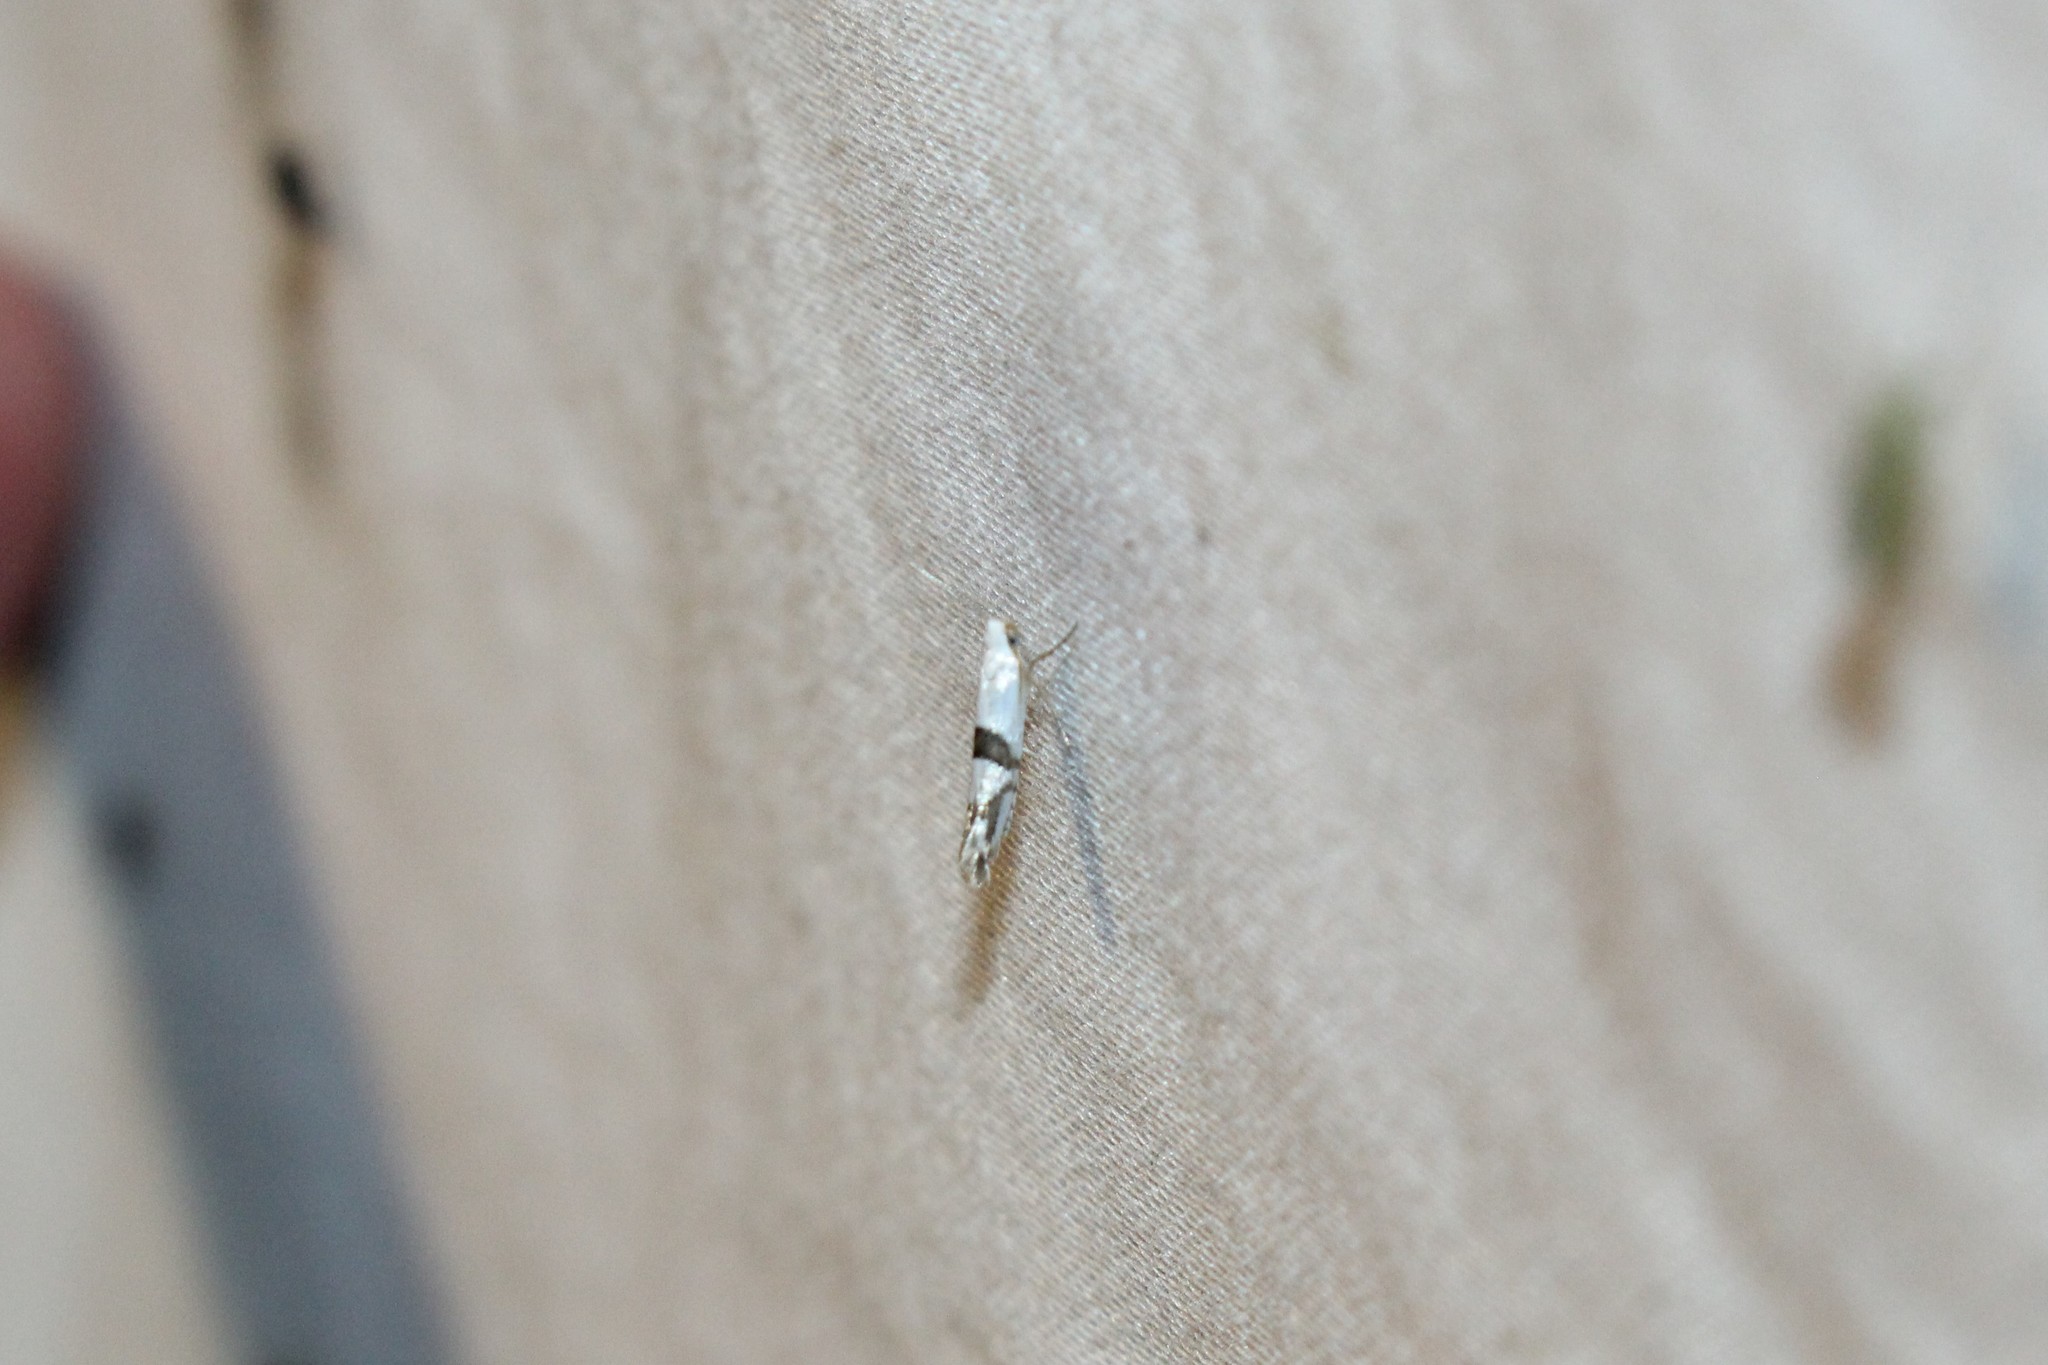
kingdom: Animalia
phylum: Arthropoda
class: Insecta
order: Lepidoptera
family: Argyresthiidae
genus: Argyresthia
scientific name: Argyresthia oreasella
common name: Cherry shoot borer moth
